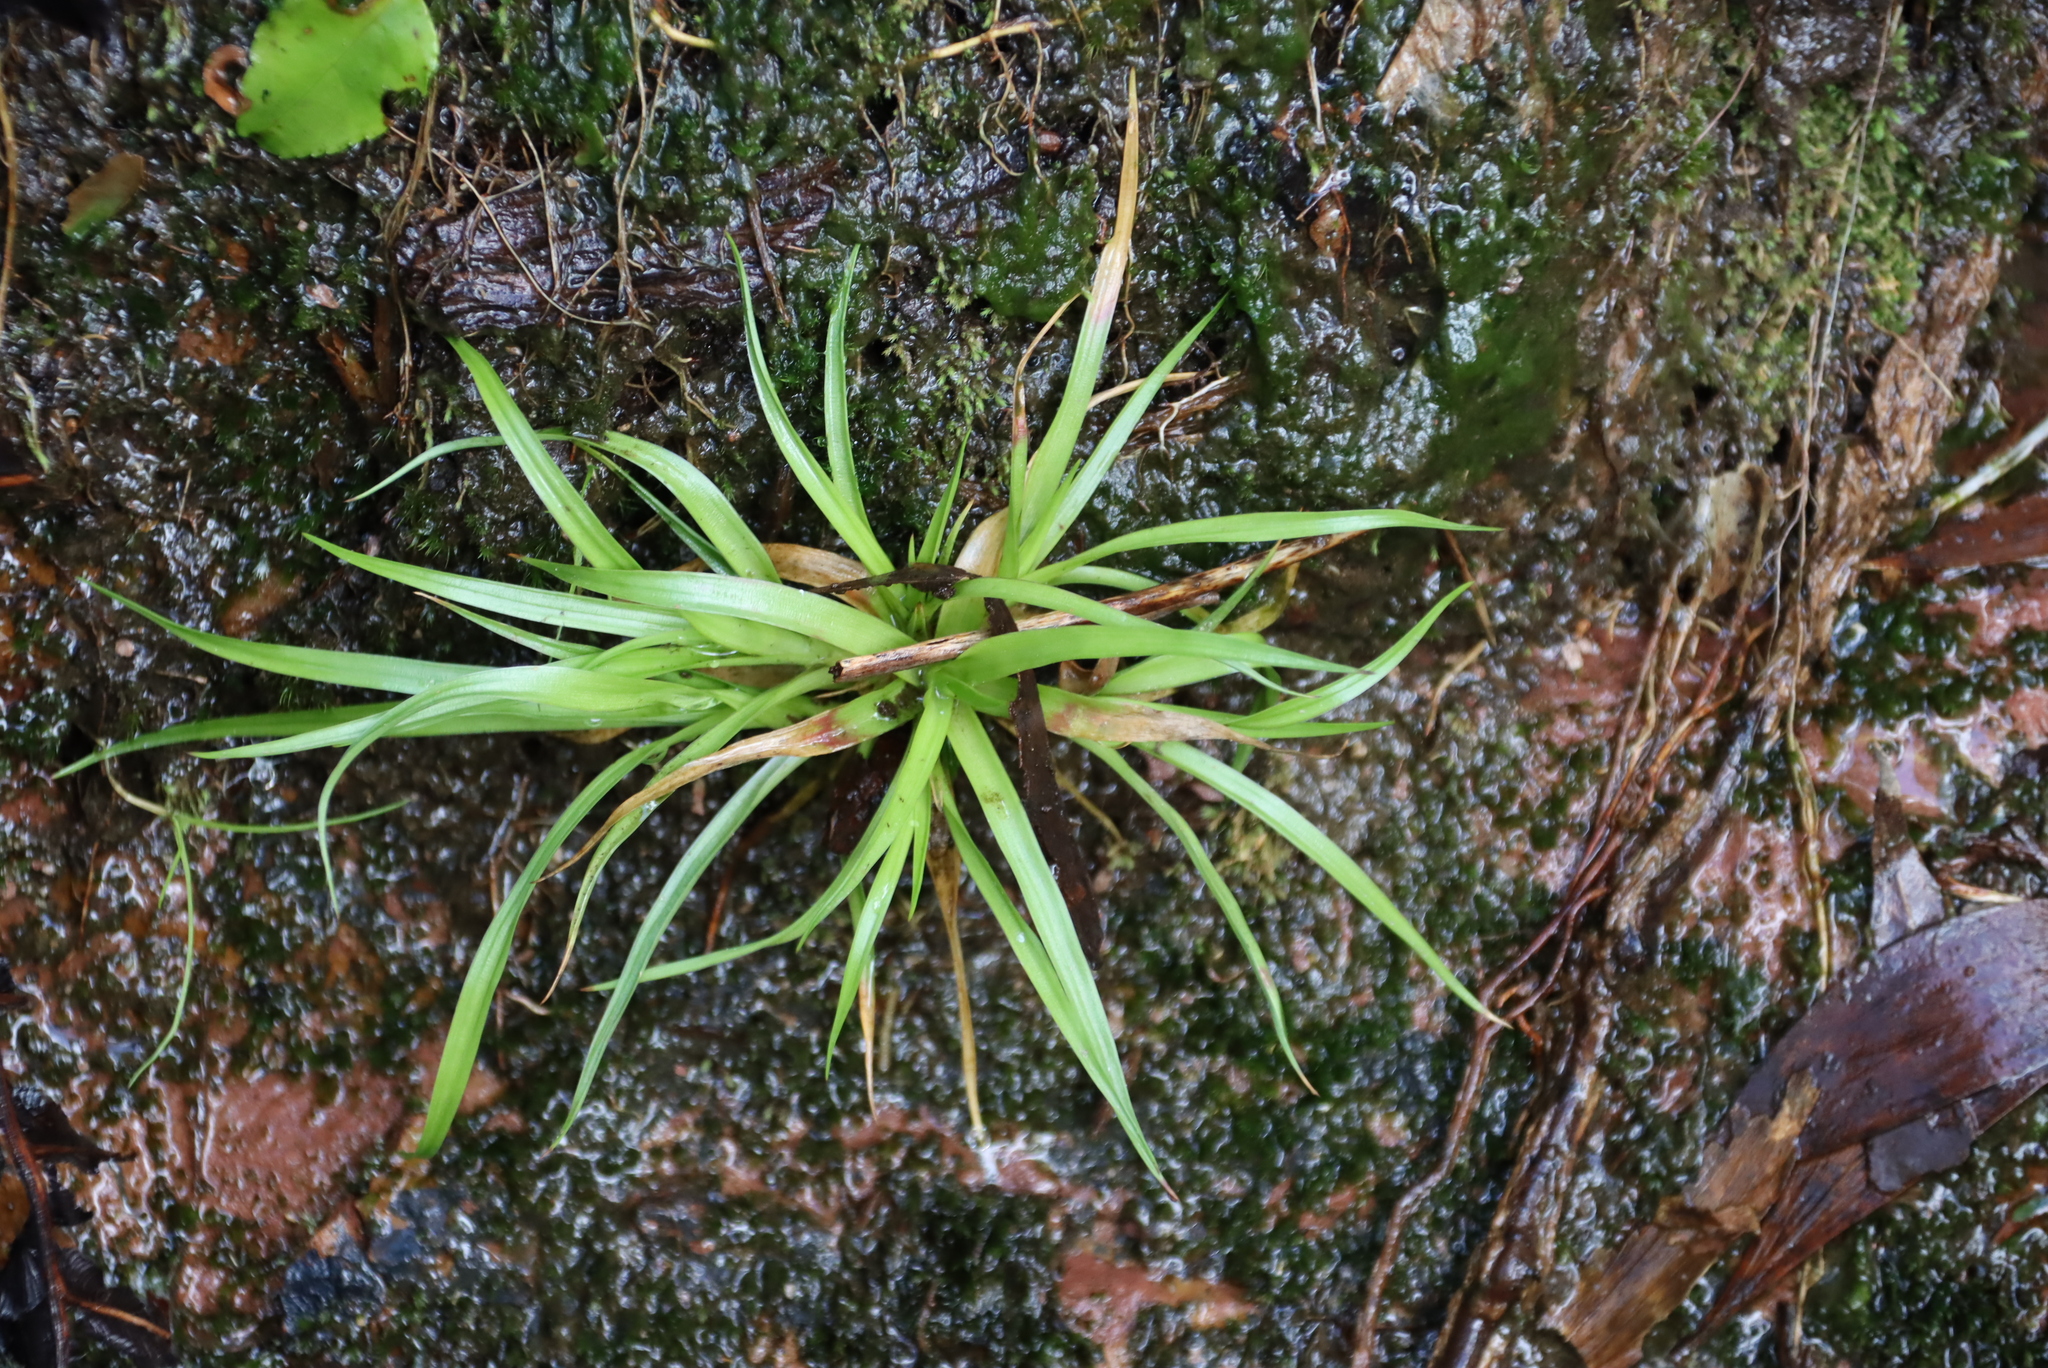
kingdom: Plantae
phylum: Tracheophyta
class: Liliopsida
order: Poales
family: Juncaceae
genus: Juncus
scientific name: Juncus lomatophyllus
